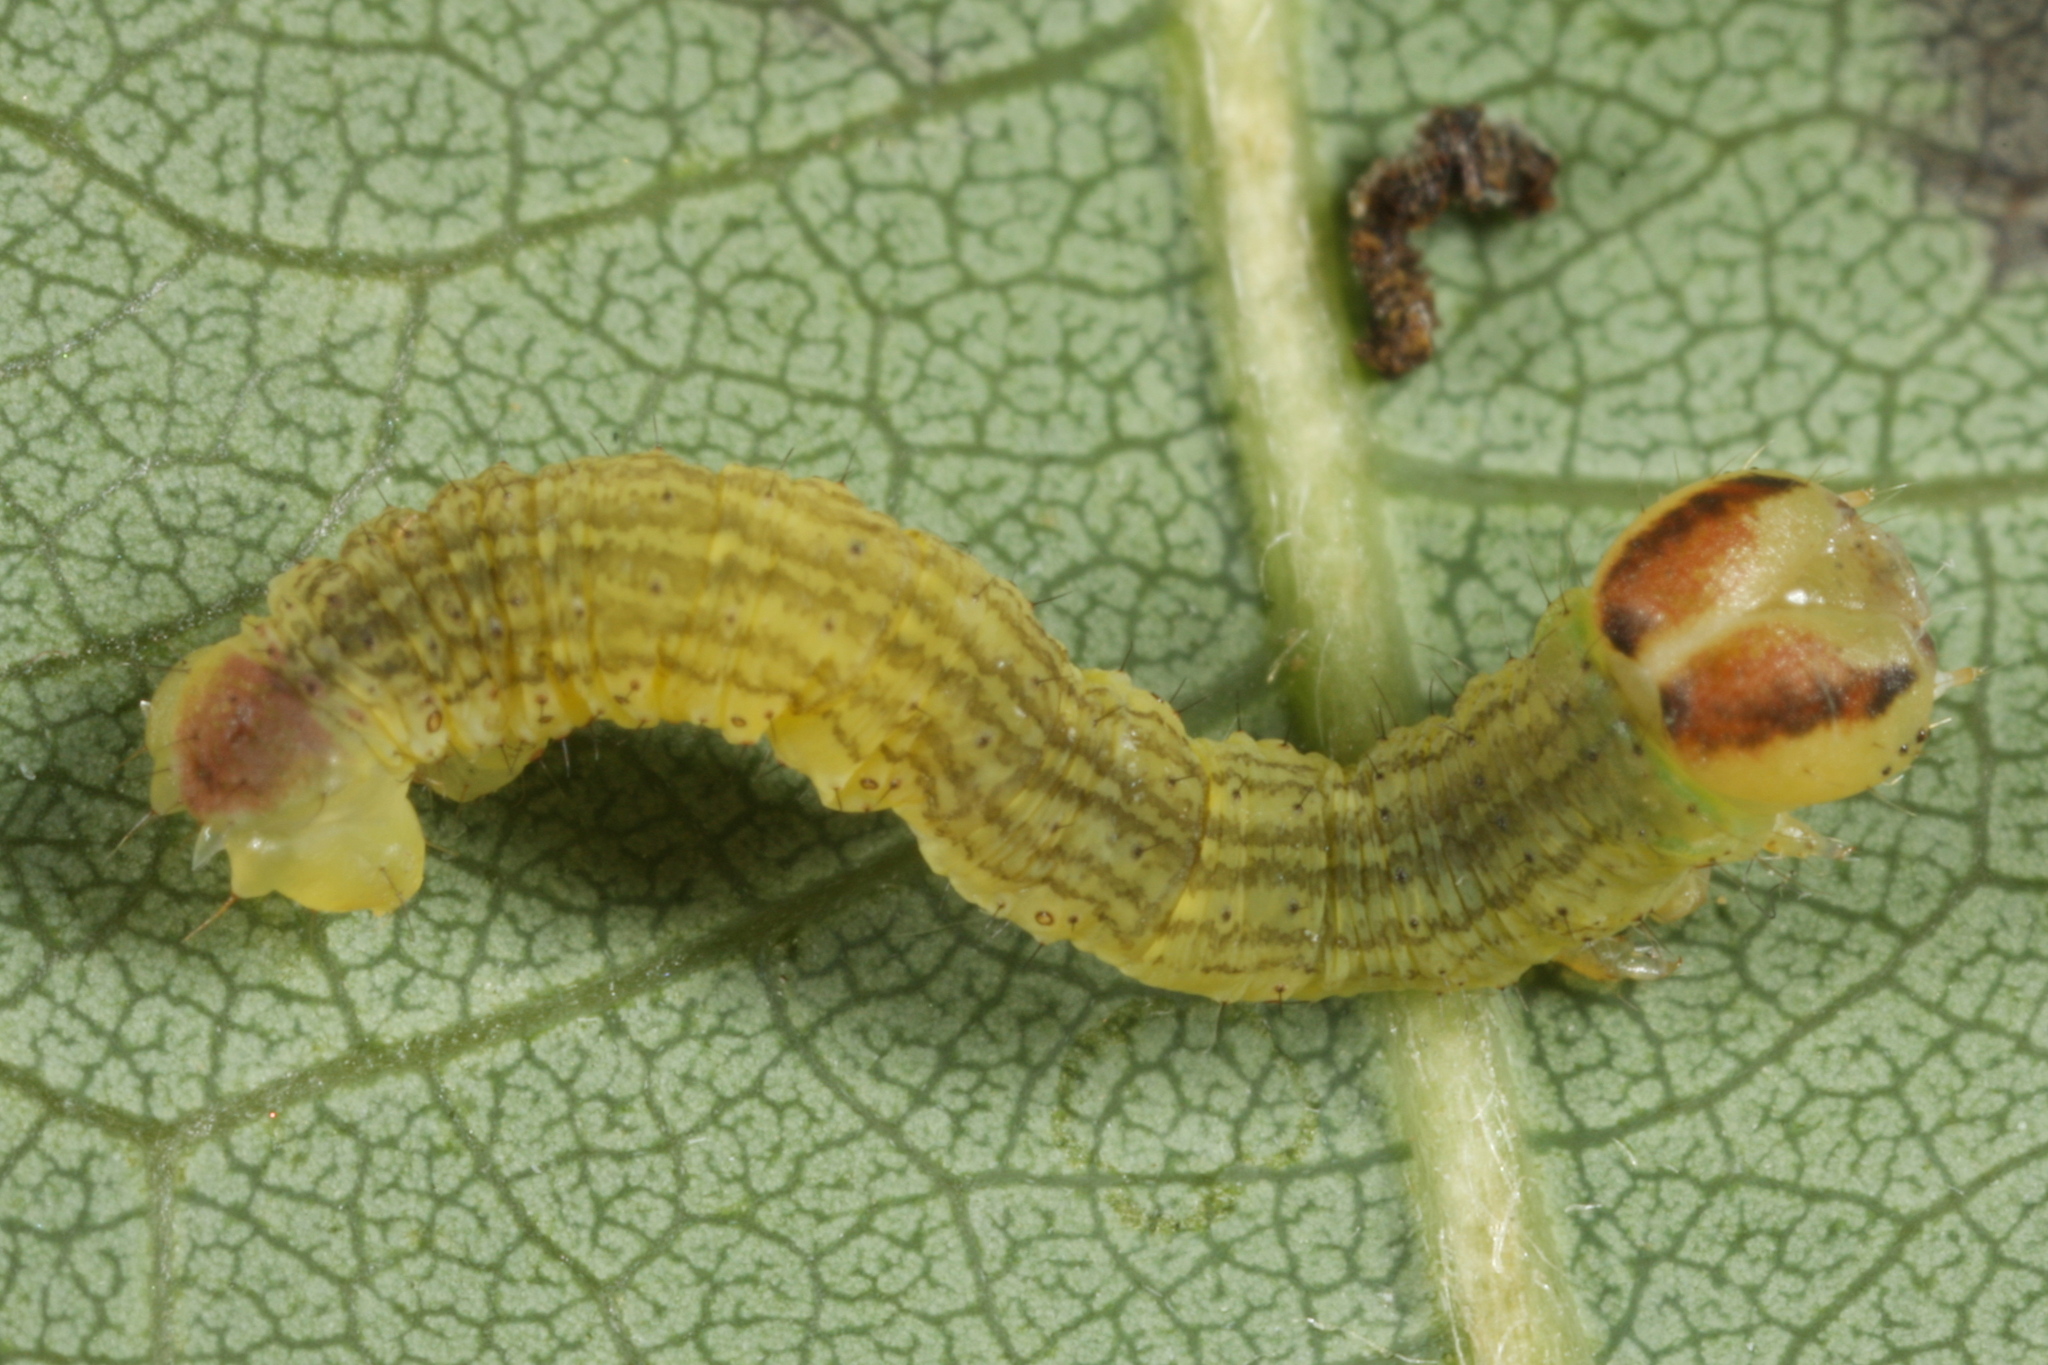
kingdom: Animalia
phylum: Arthropoda
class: Insecta
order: Lepidoptera
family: Geometridae
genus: Lomaspilis
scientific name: Lomaspilis marginata
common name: Clouded border
